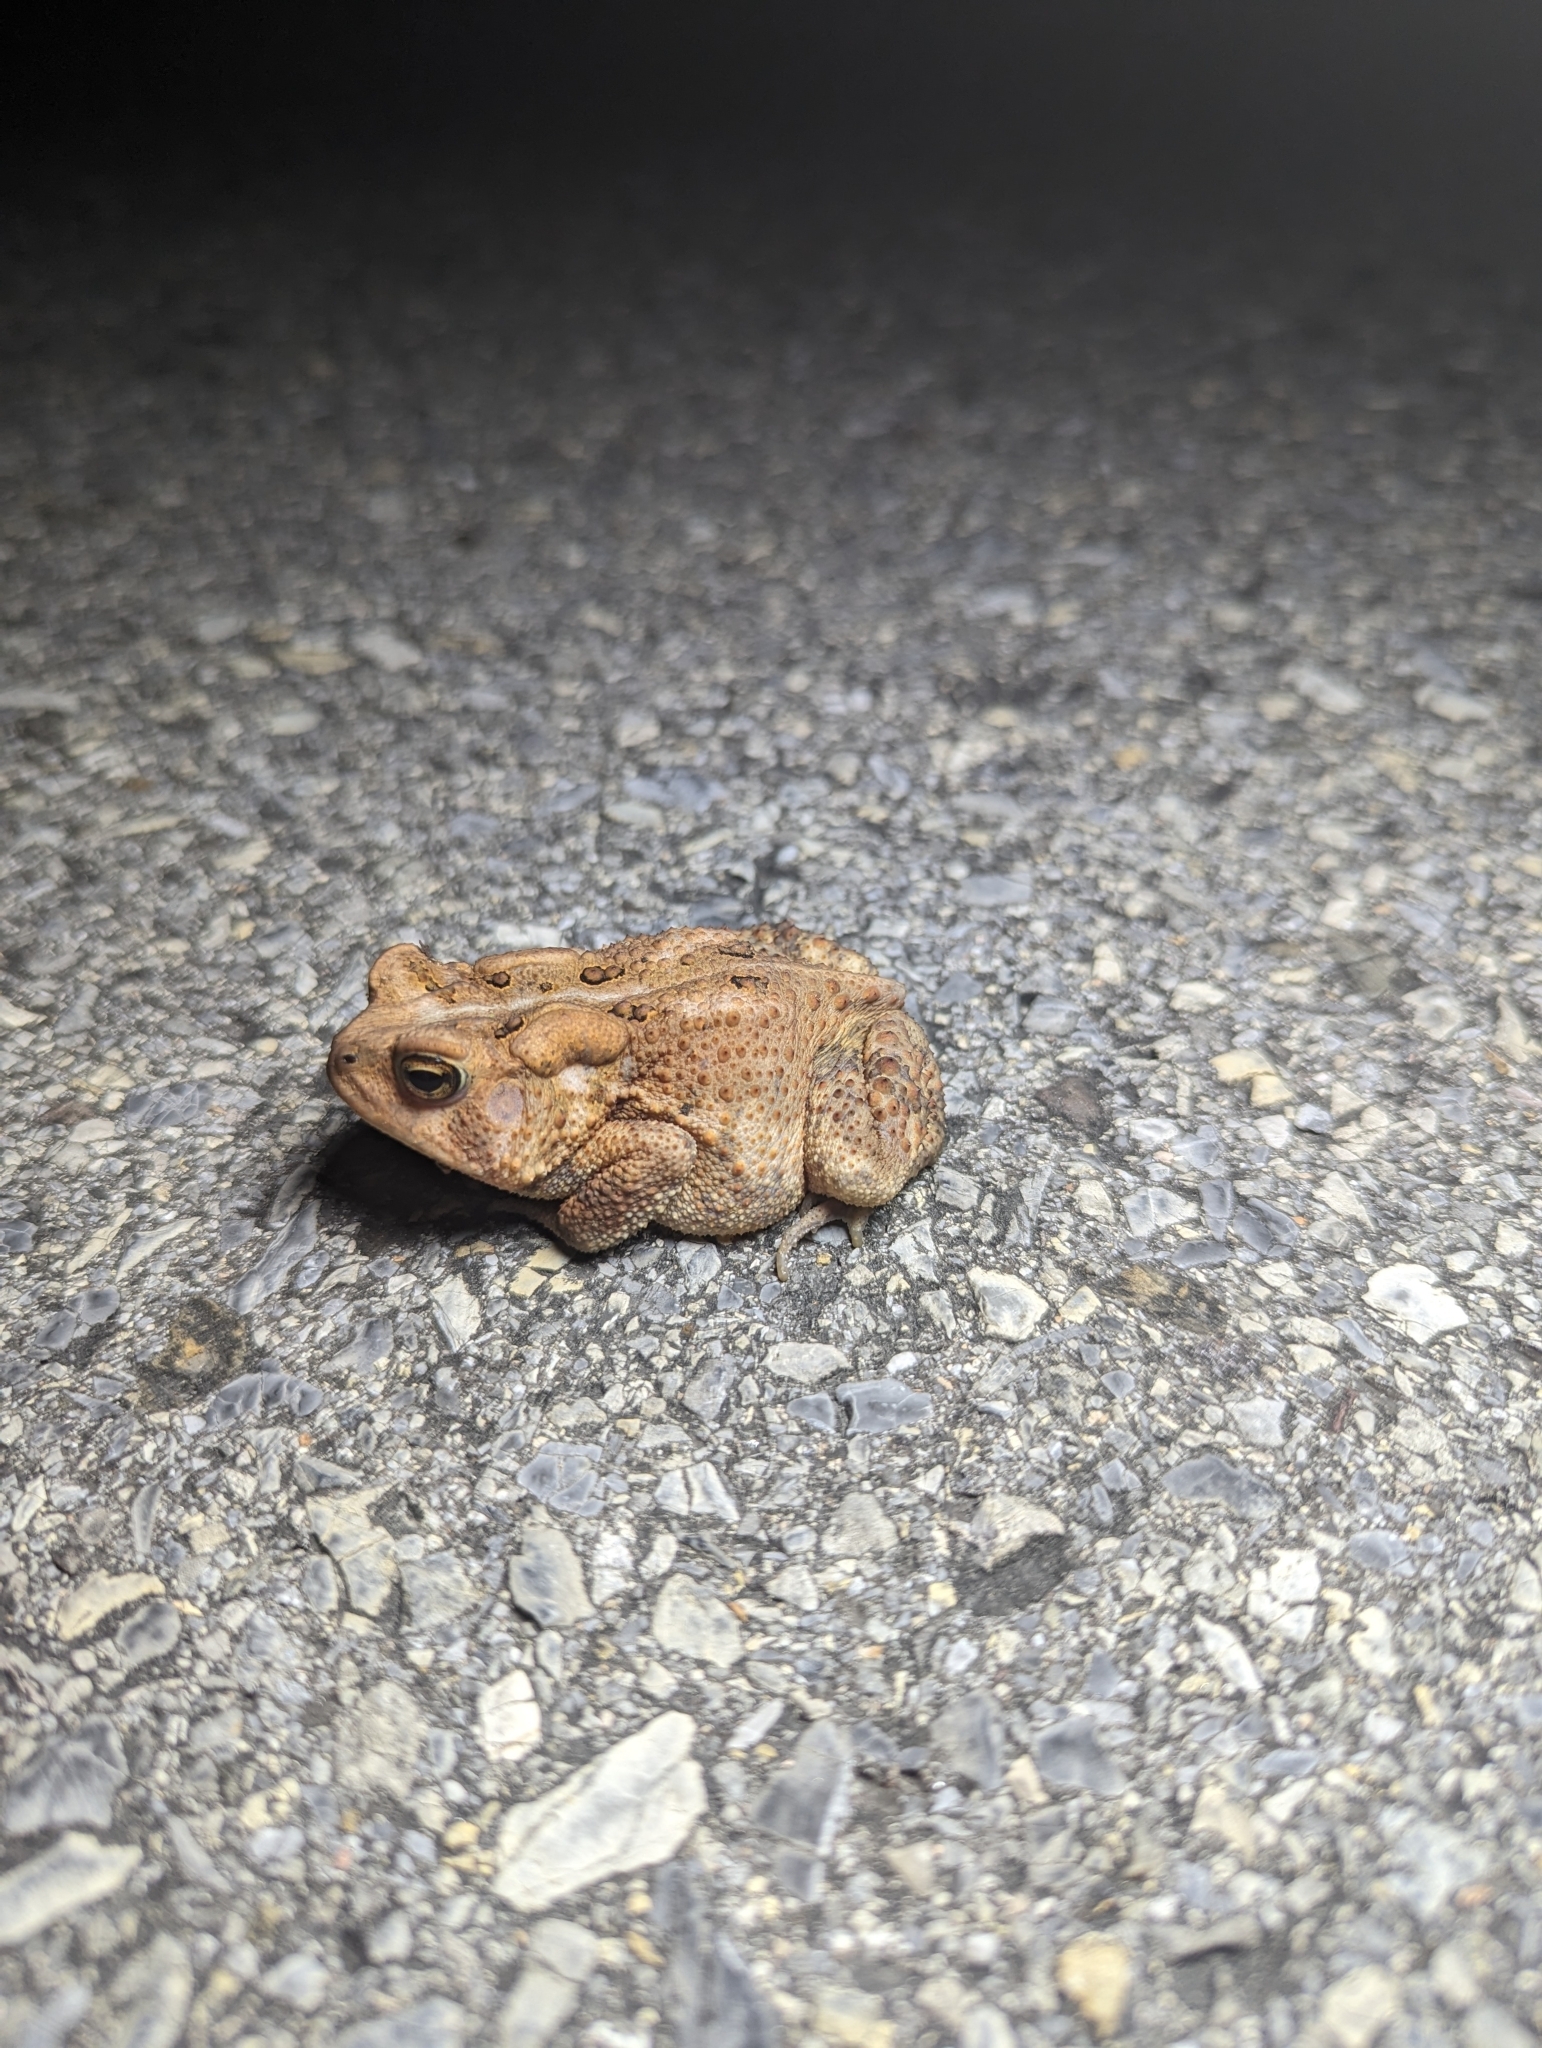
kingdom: Animalia
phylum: Chordata
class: Amphibia
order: Anura
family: Bufonidae
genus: Anaxyrus
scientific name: Anaxyrus americanus
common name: American toad
